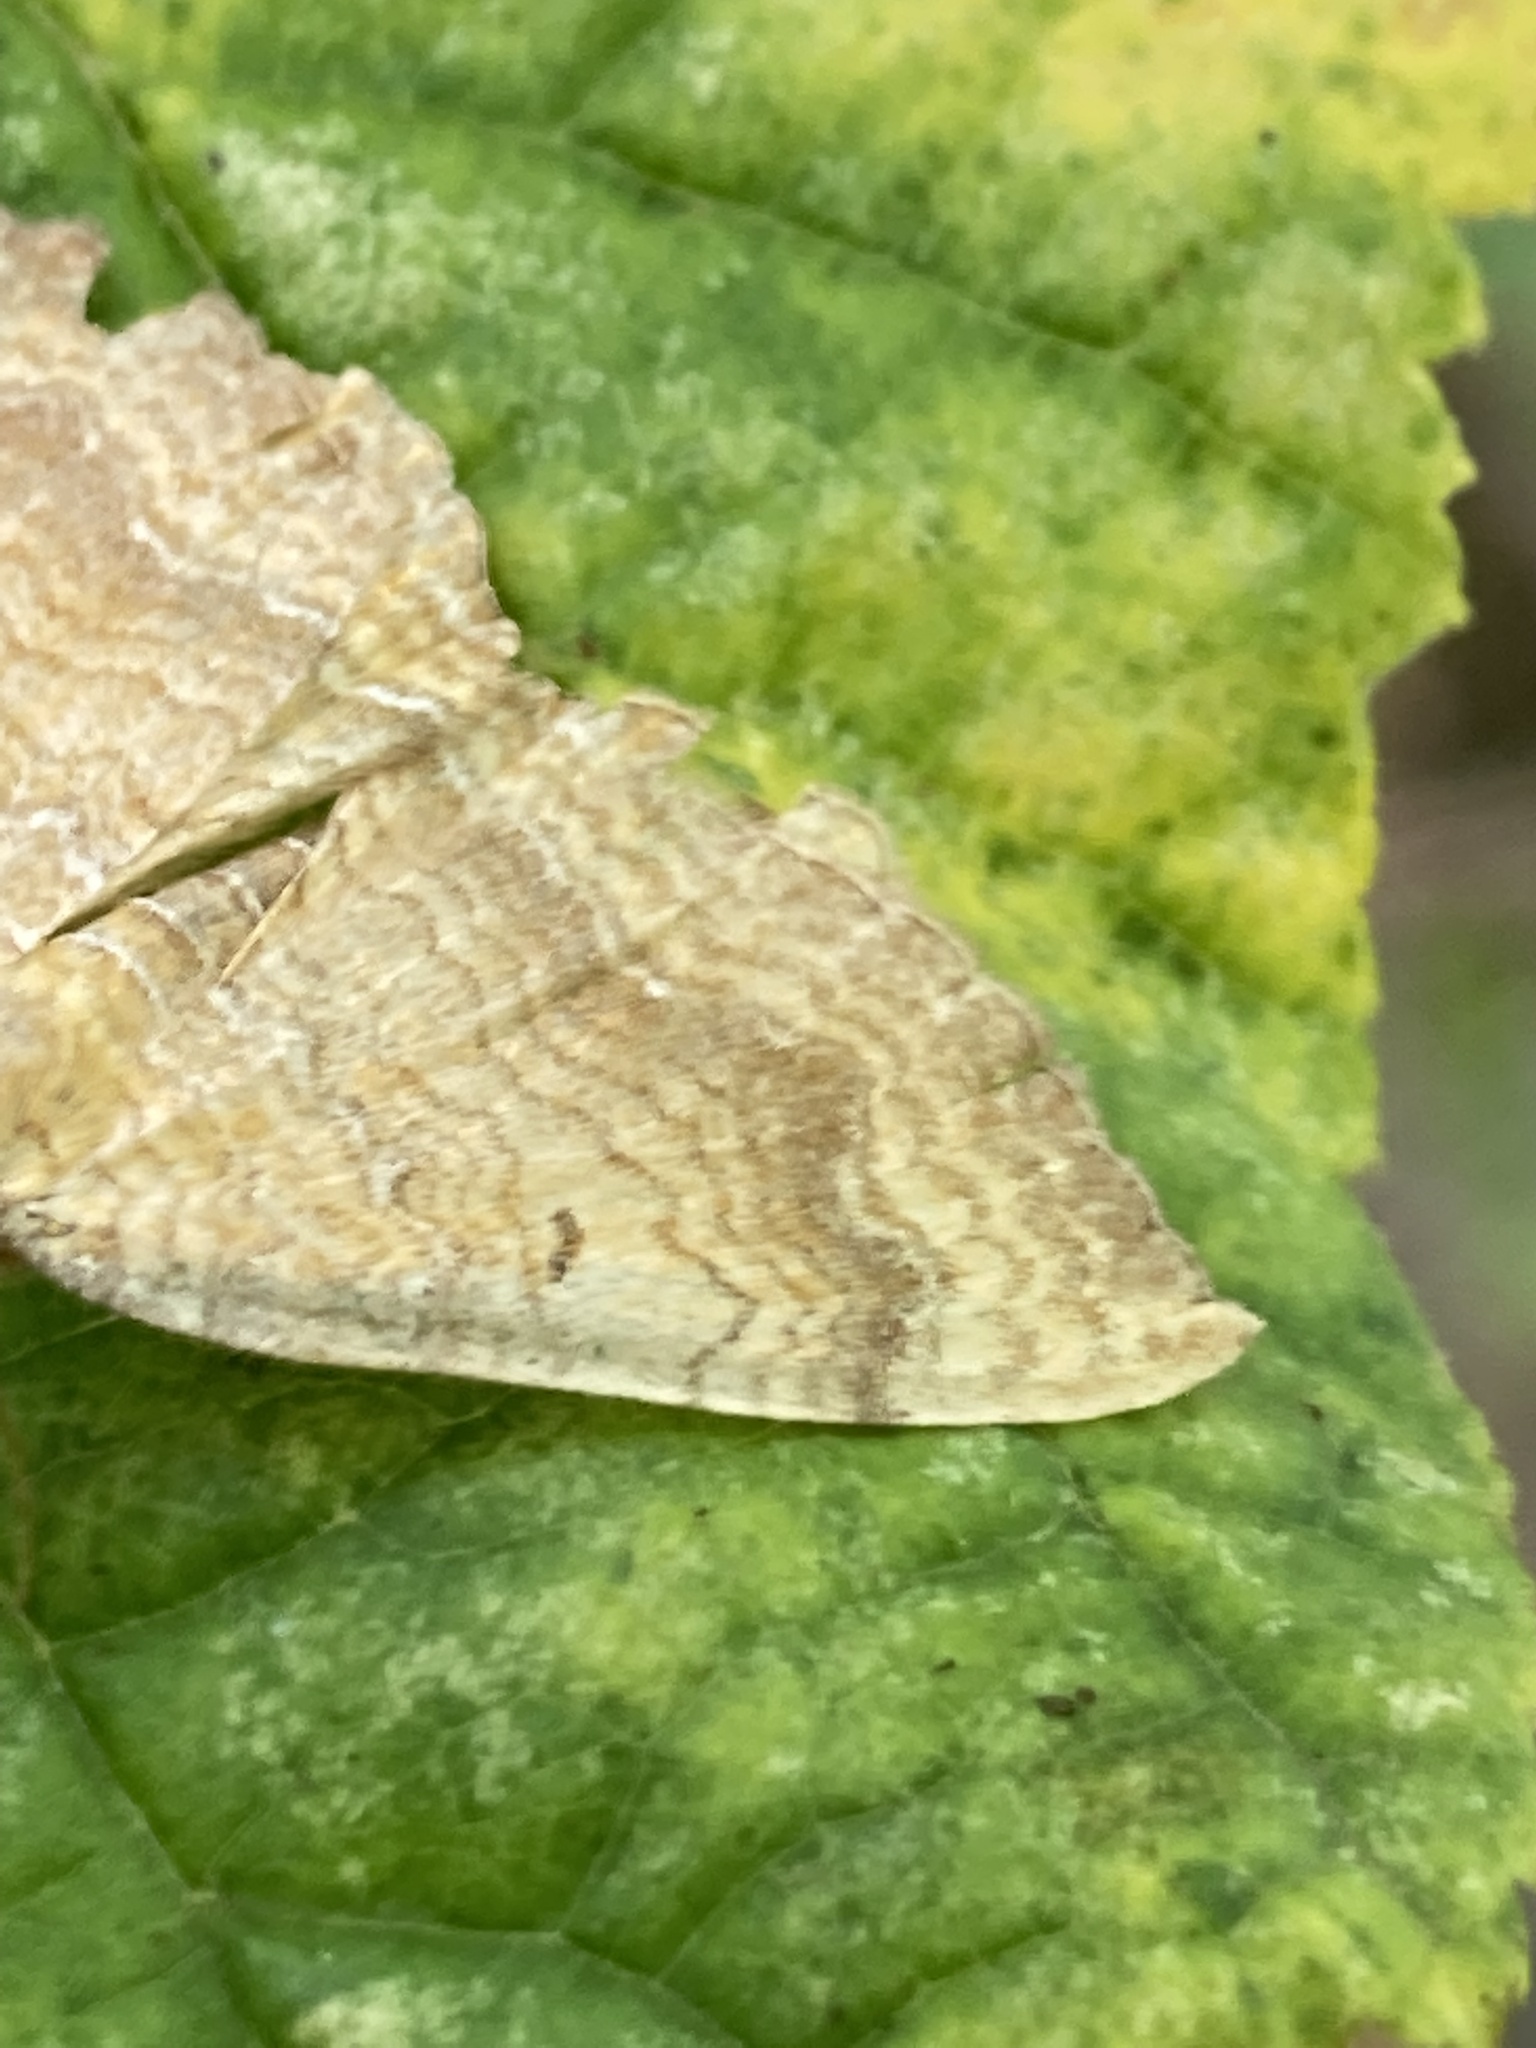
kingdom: Animalia
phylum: Arthropoda
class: Insecta
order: Lepidoptera
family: Geometridae
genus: Camptogramma
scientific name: Camptogramma bilineata
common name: Yellow shell
